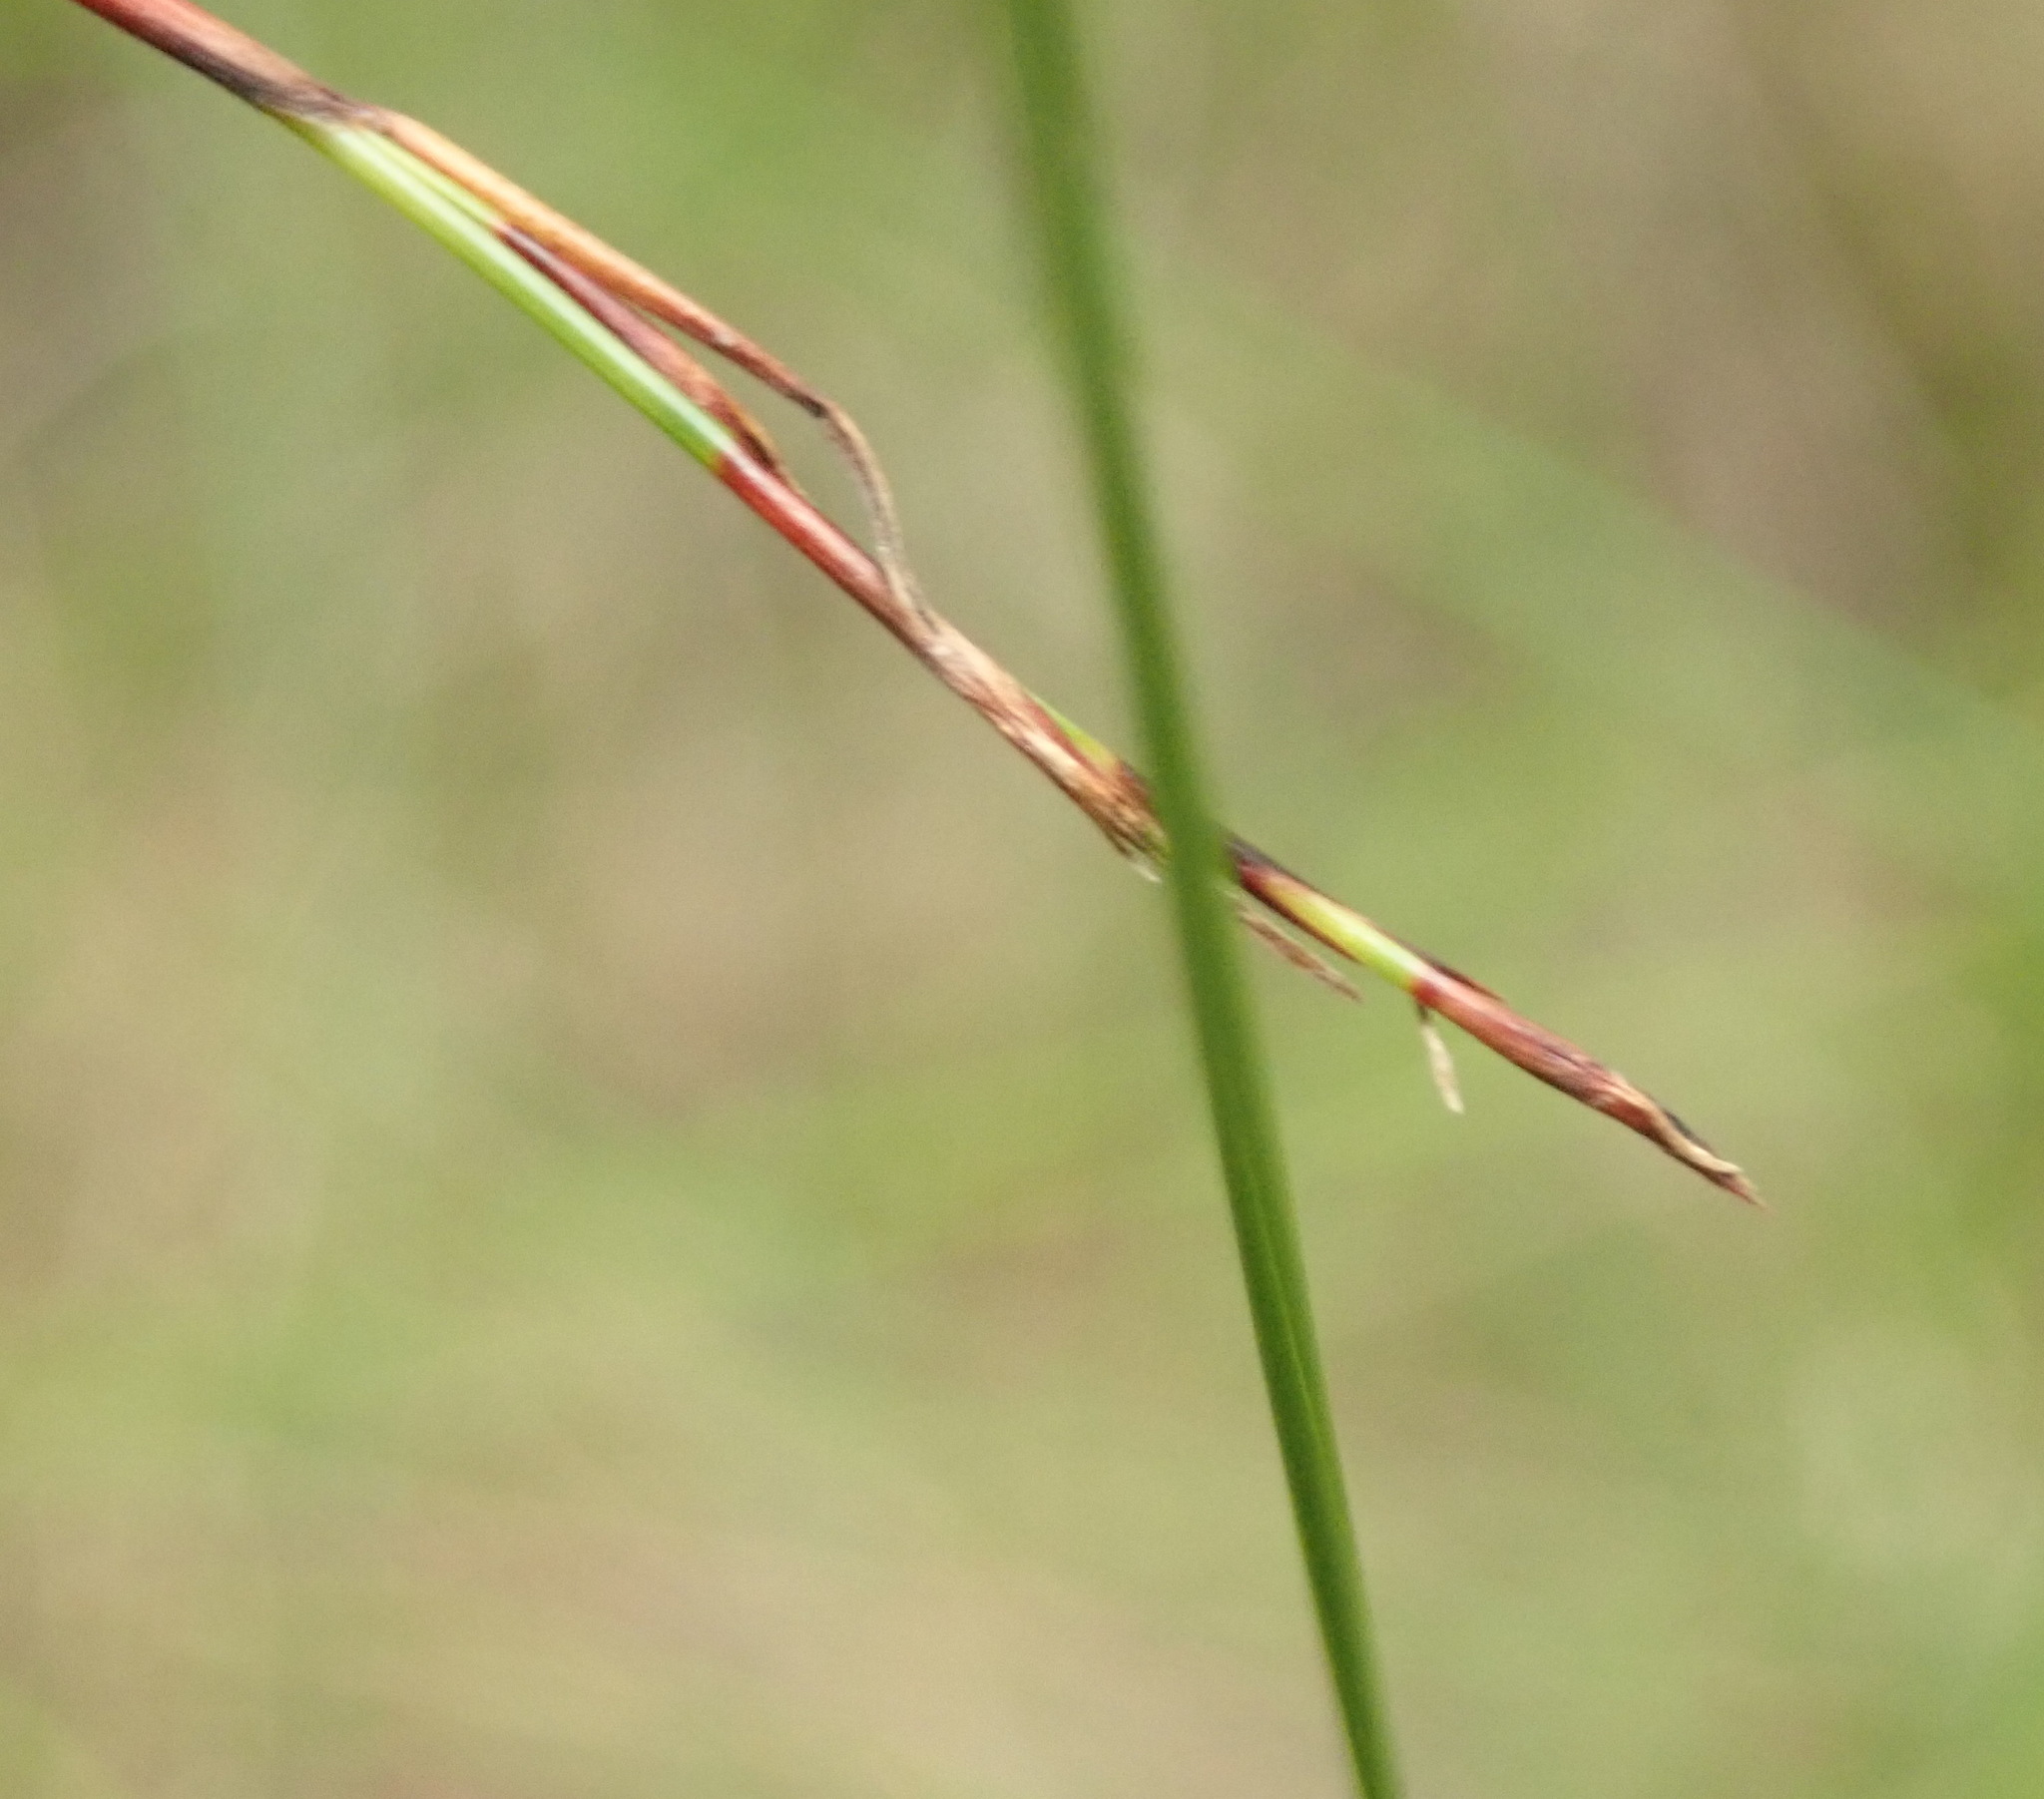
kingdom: Plantae
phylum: Tracheophyta
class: Liliopsida
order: Poales
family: Cyperaceae
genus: Schoenus
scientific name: Schoenus tendo
